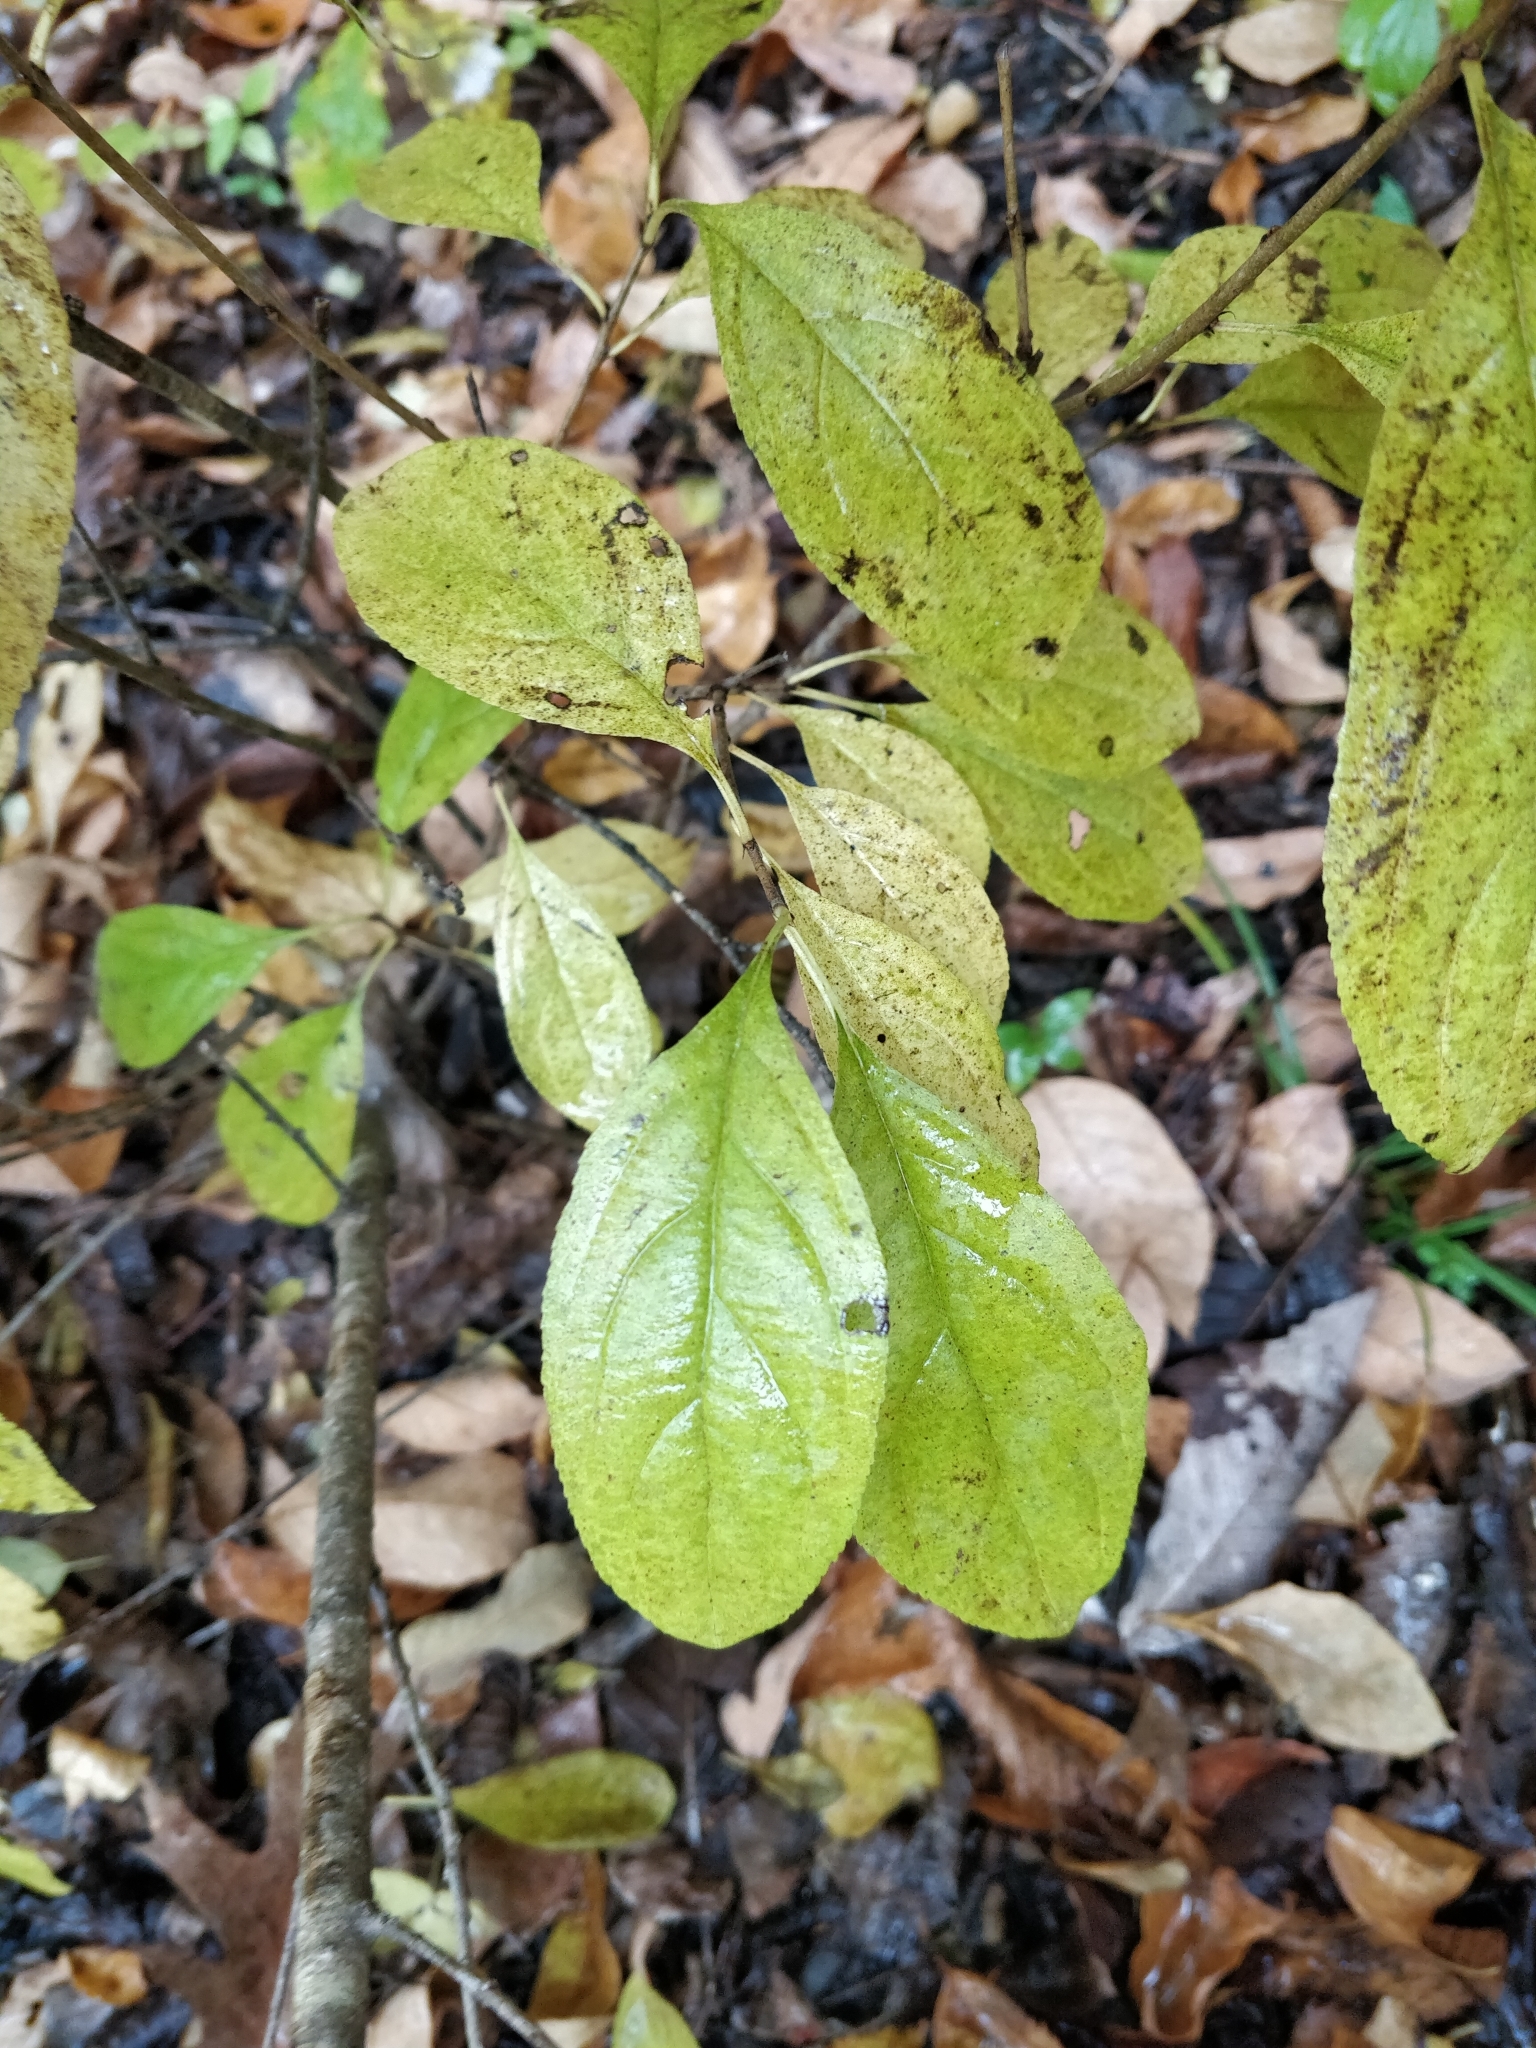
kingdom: Plantae
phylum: Tracheophyta
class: Magnoliopsida
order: Rosales
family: Rhamnaceae
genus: Rhamnus
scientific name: Rhamnus cathartica
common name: Common buckthorn
